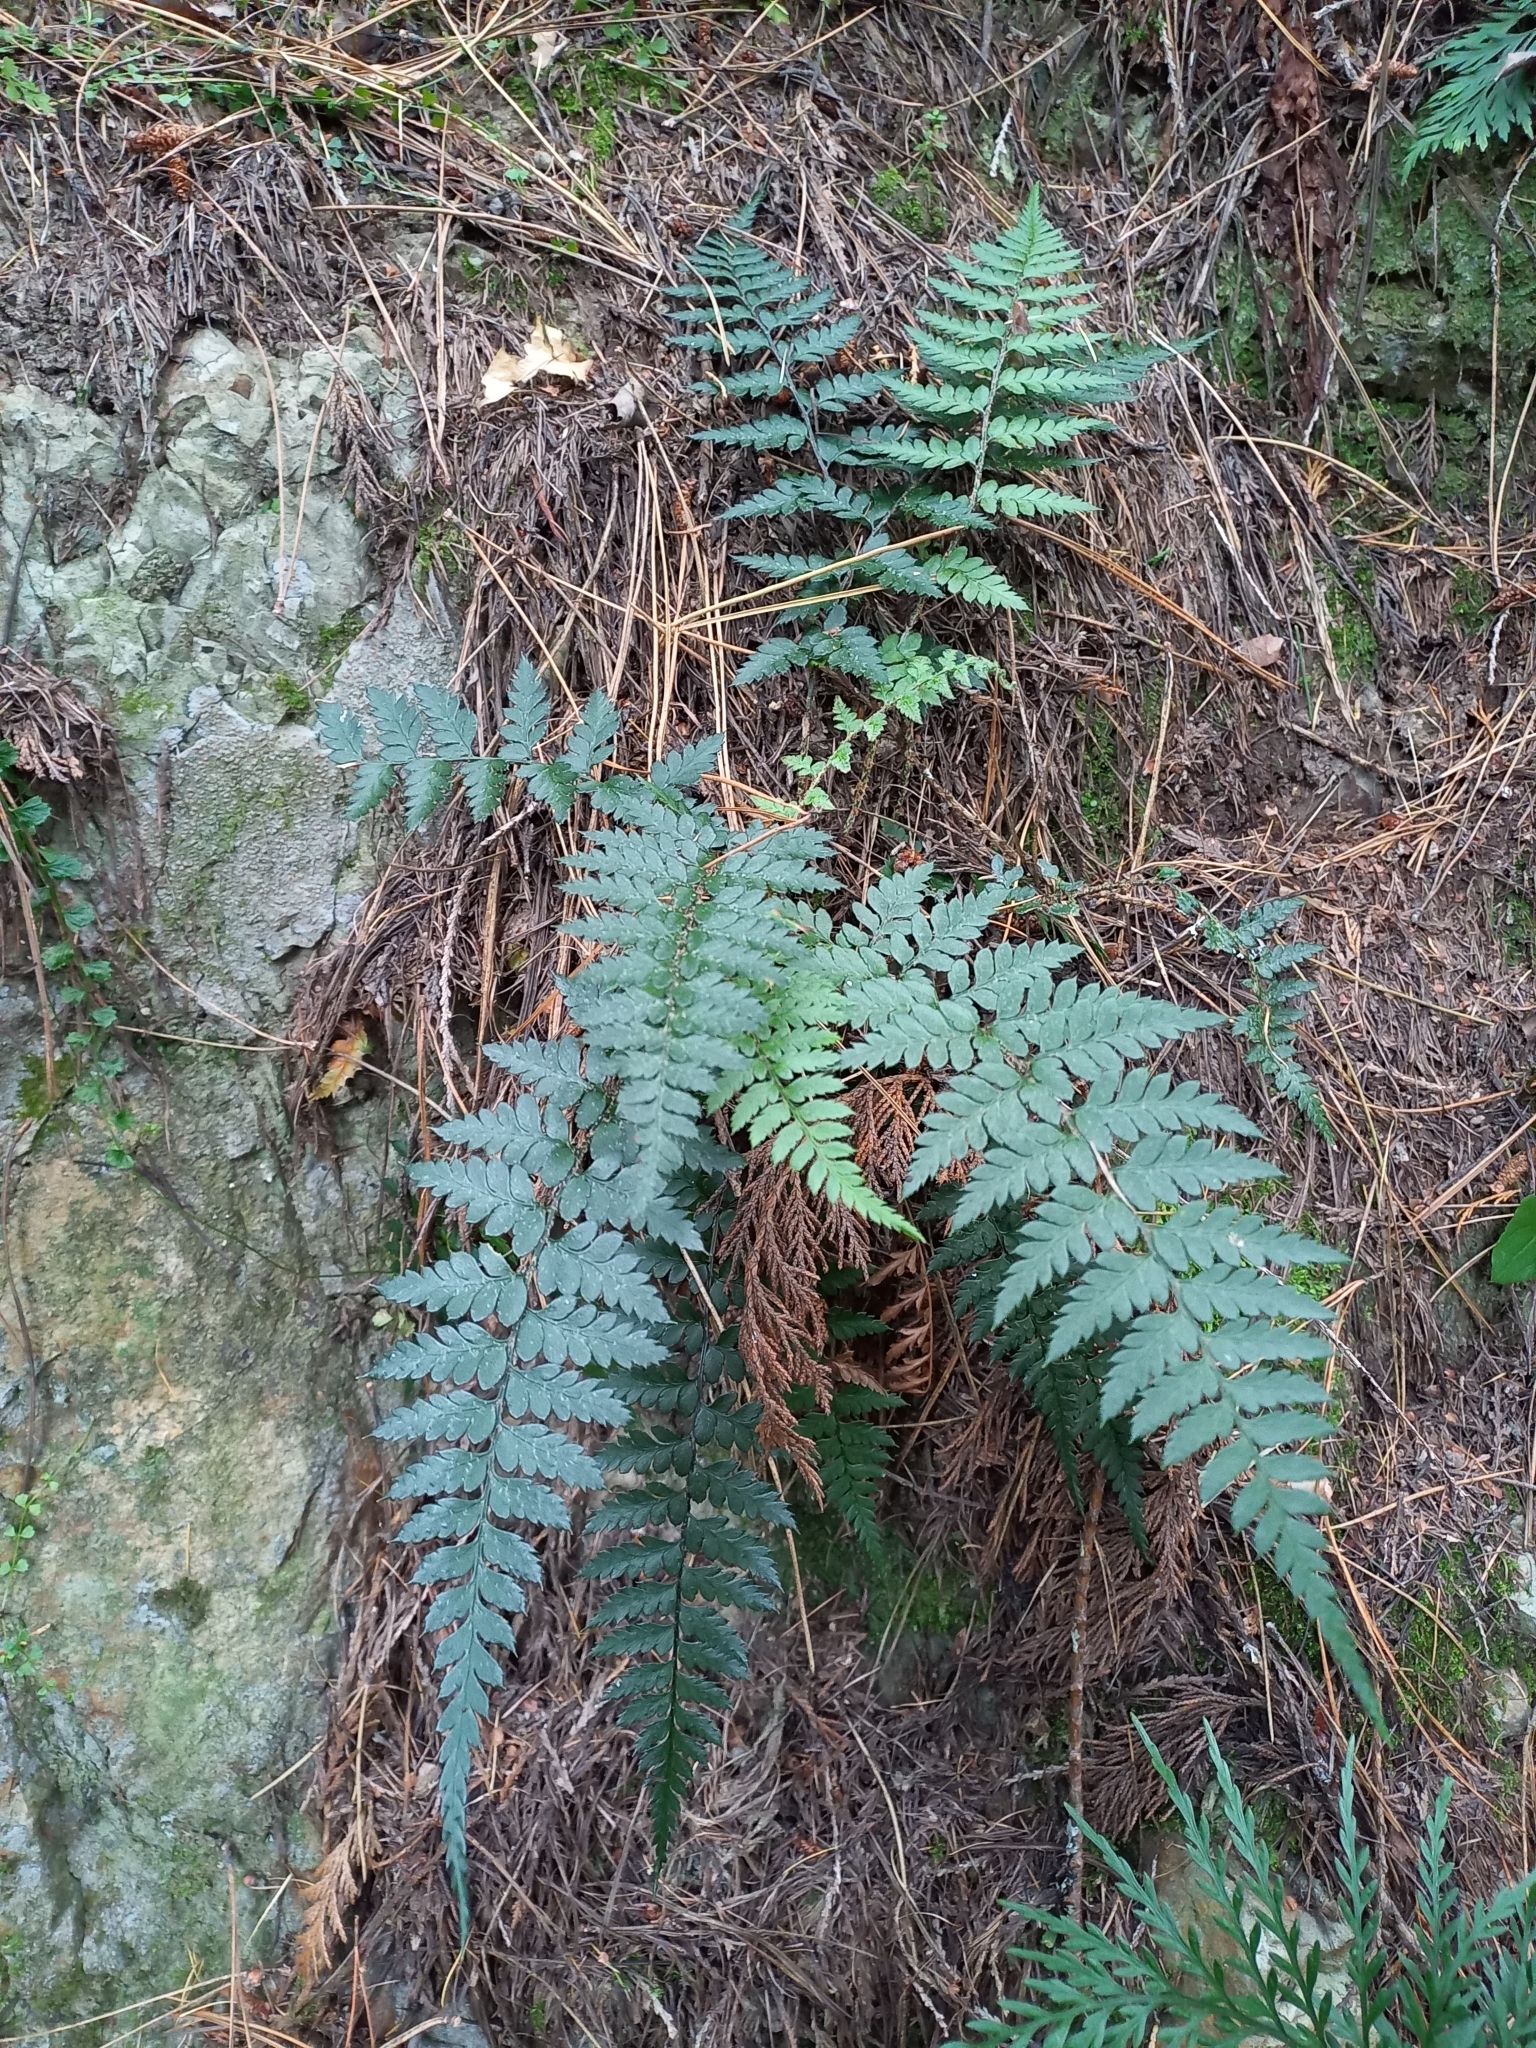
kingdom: Plantae
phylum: Tracheophyta
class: Polypodiopsida
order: Polypodiales
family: Dryopteridaceae
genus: Polystichum
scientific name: Polystichum oculatum
